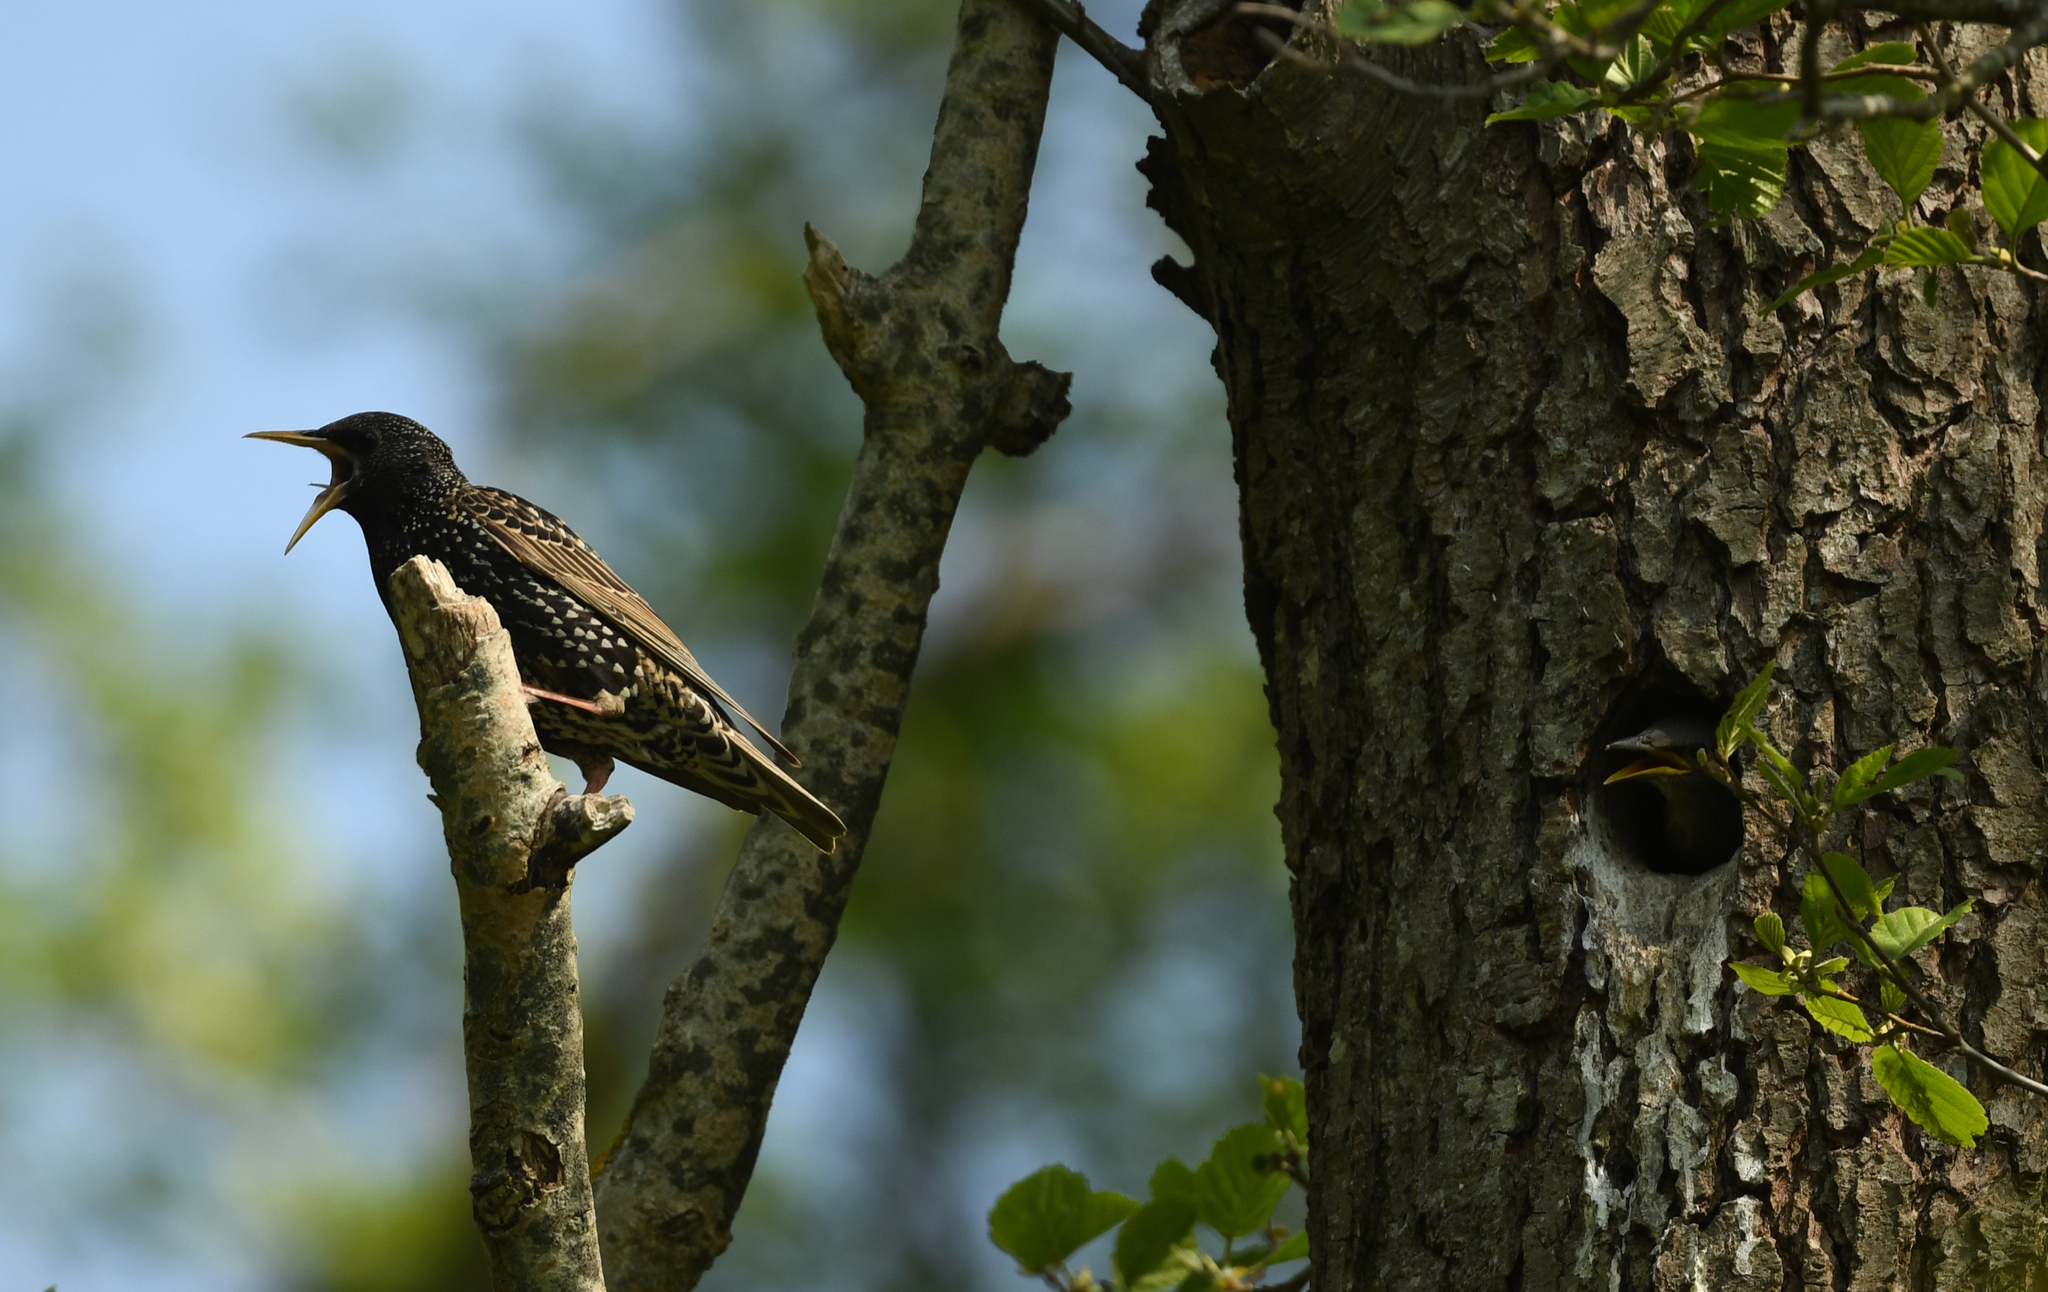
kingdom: Animalia
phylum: Chordata
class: Aves
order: Passeriformes
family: Sturnidae
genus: Sturnus
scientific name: Sturnus vulgaris
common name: Common starling
